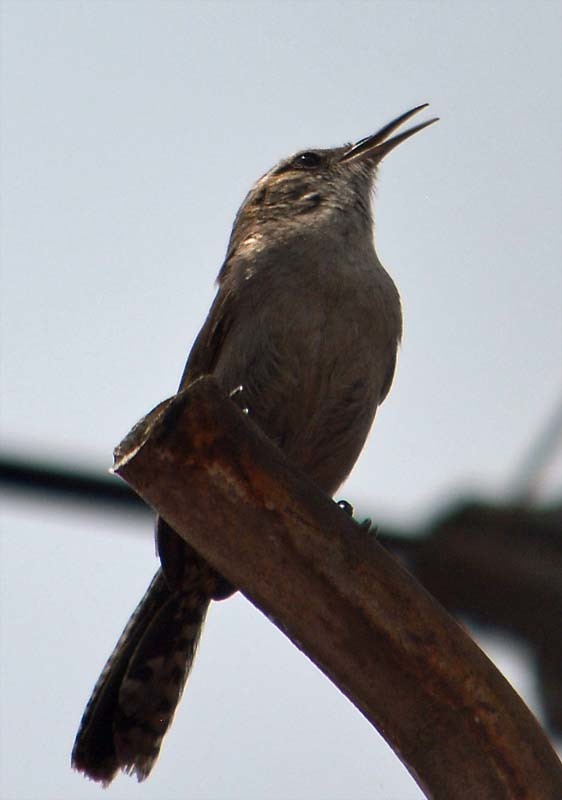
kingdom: Animalia
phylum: Chordata
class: Aves
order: Passeriformes
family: Troglodytidae
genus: Thryomanes
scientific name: Thryomanes bewickii
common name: Bewick's wren
